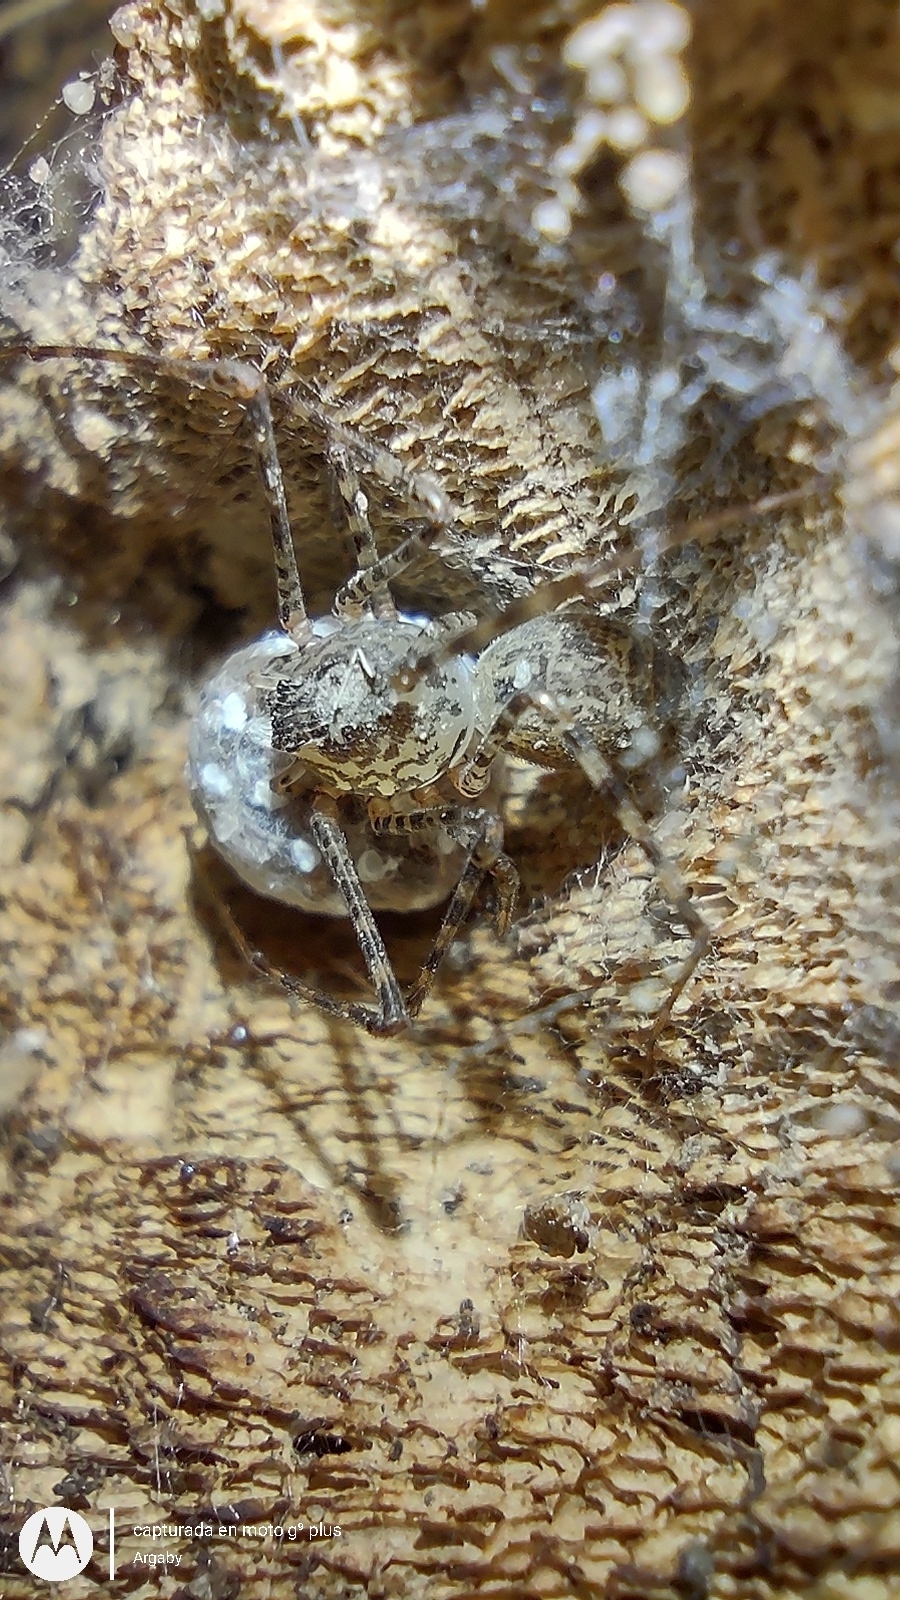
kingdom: Animalia
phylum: Arthropoda
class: Arachnida
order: Araneae
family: Scytodidae
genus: Scytodes
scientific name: Scytodes globula
